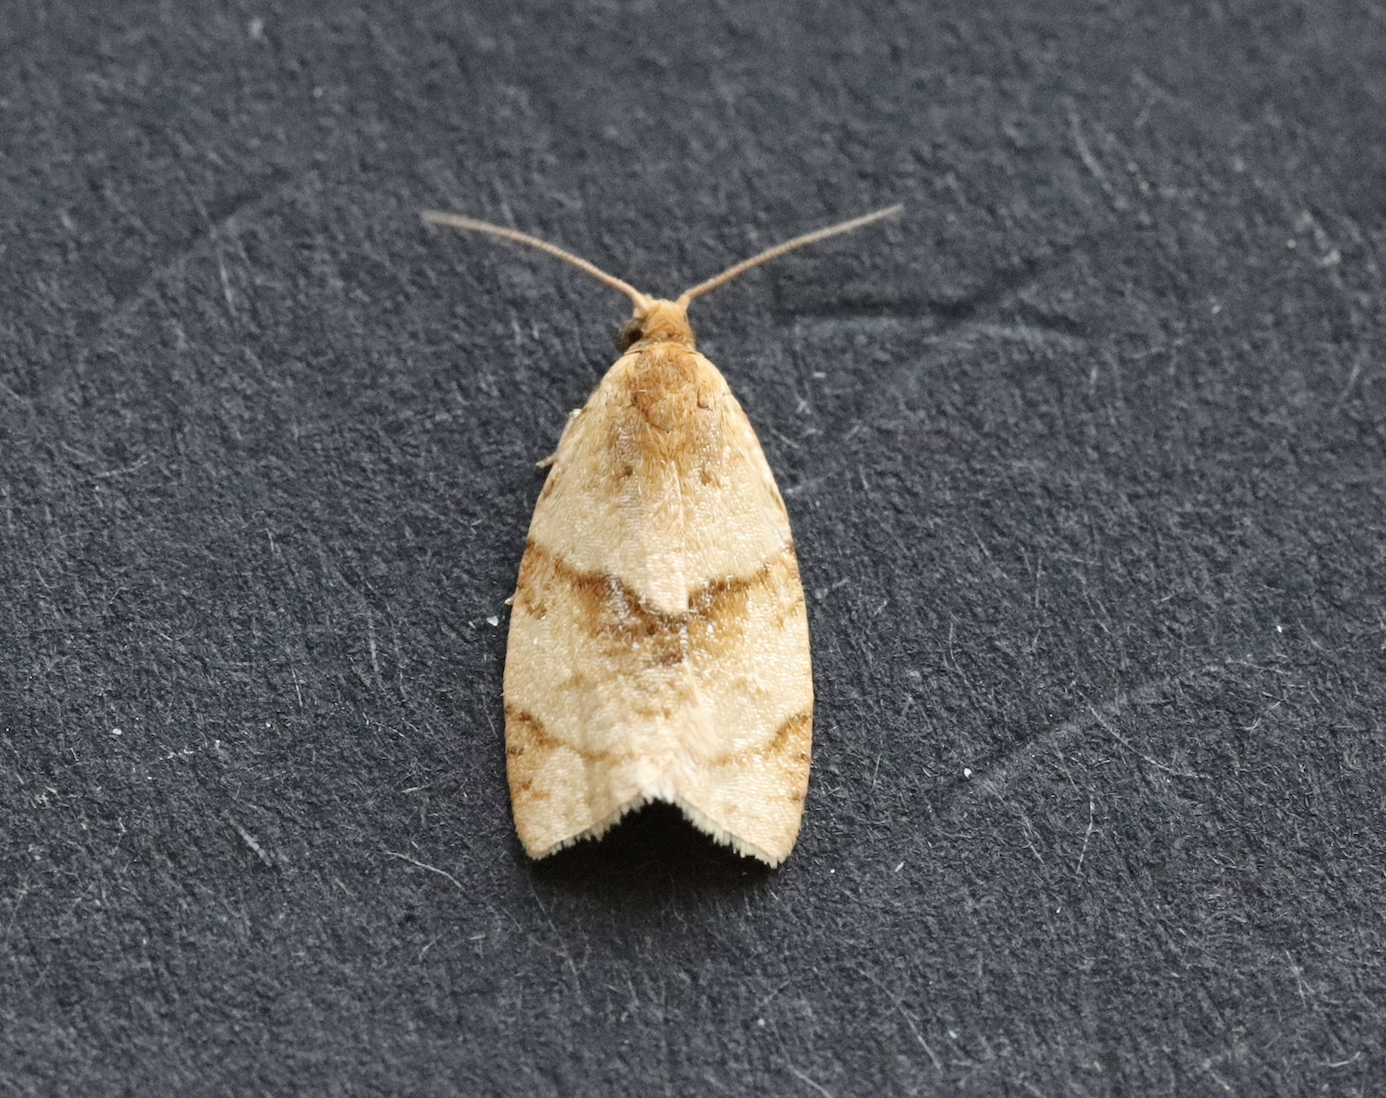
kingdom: Animalia
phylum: Arthropoda
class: Insecta
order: Lepidoptera
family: Tortricidae
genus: Clepsis
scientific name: Clepsis rurinana
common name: Pale twist
